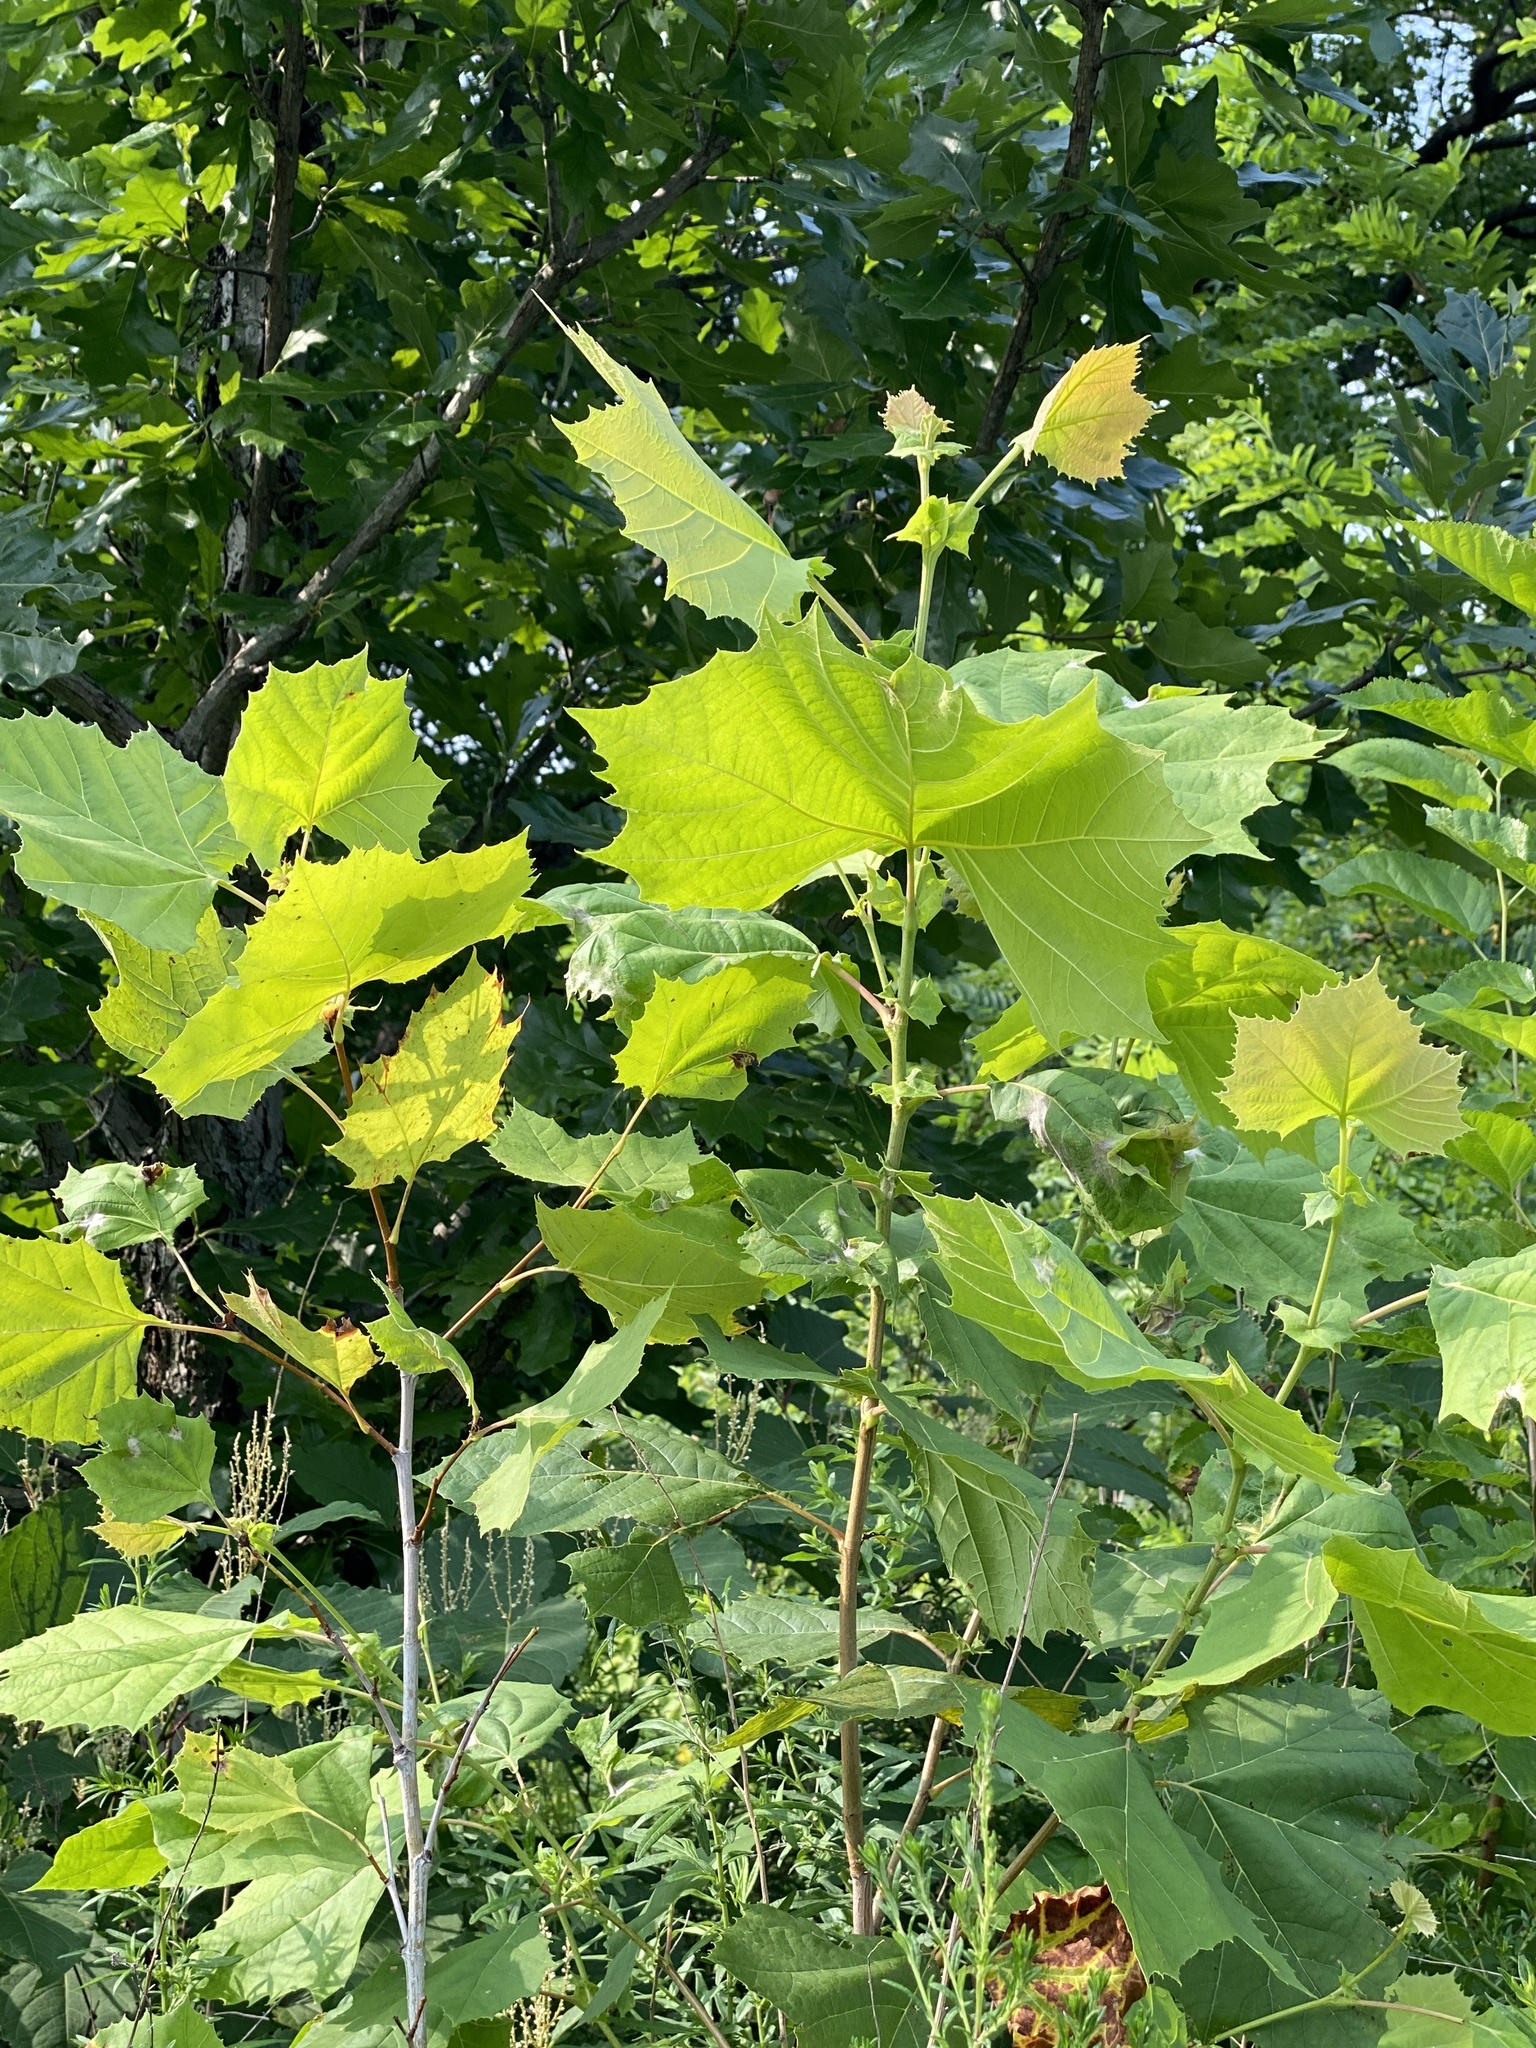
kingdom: Plantae
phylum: Tracheophyta
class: Magnoliopsida
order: Proteales
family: Platanaceae
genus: Platanus
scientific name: Platanus occidentalis
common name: American sycamore
